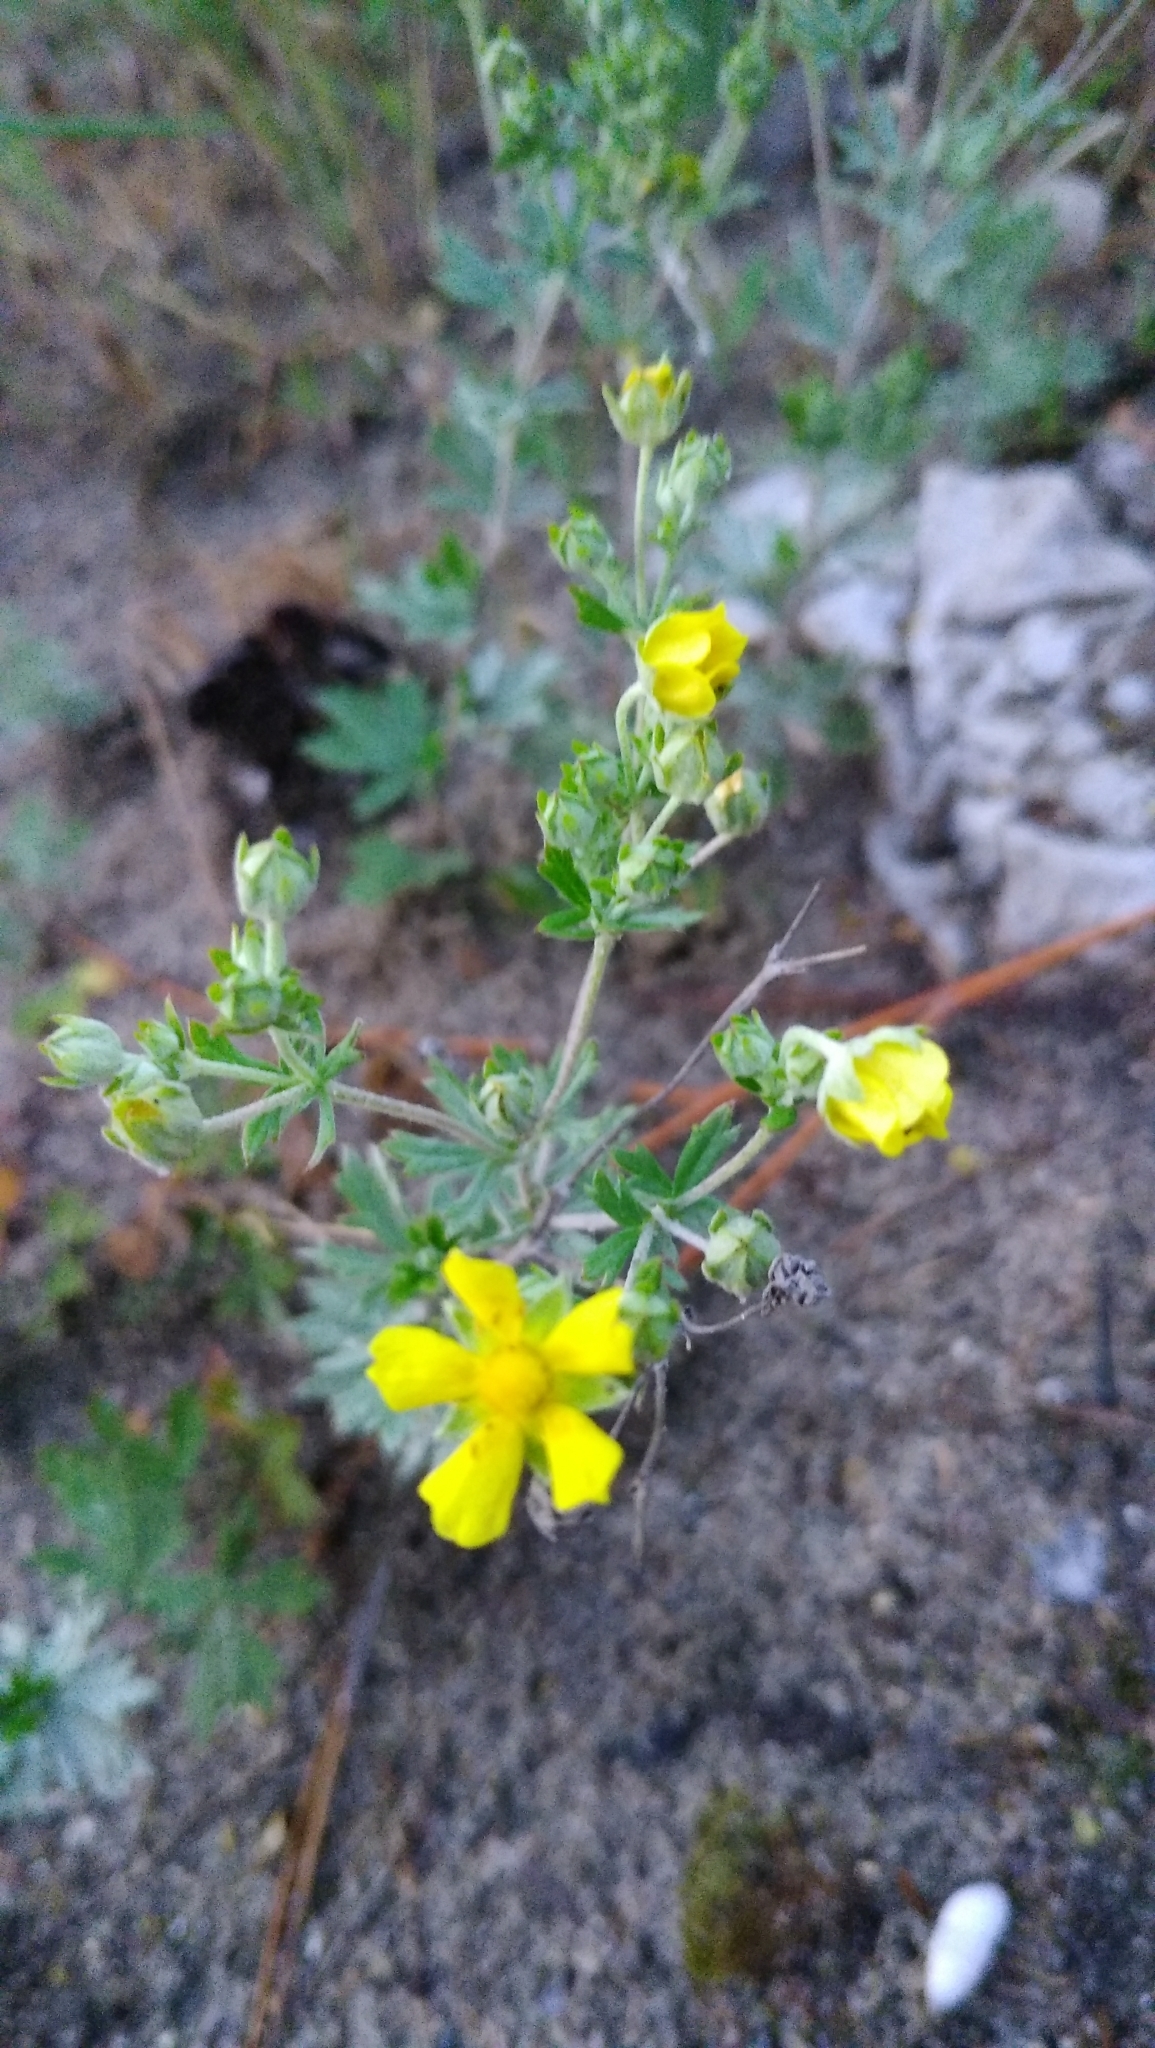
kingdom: Plantae
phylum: Tracheophyta
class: Magnoliopsida
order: Rosales
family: Rosaceae
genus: Potentilla
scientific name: Potentilla argentea
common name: Hoary cinquefoil
